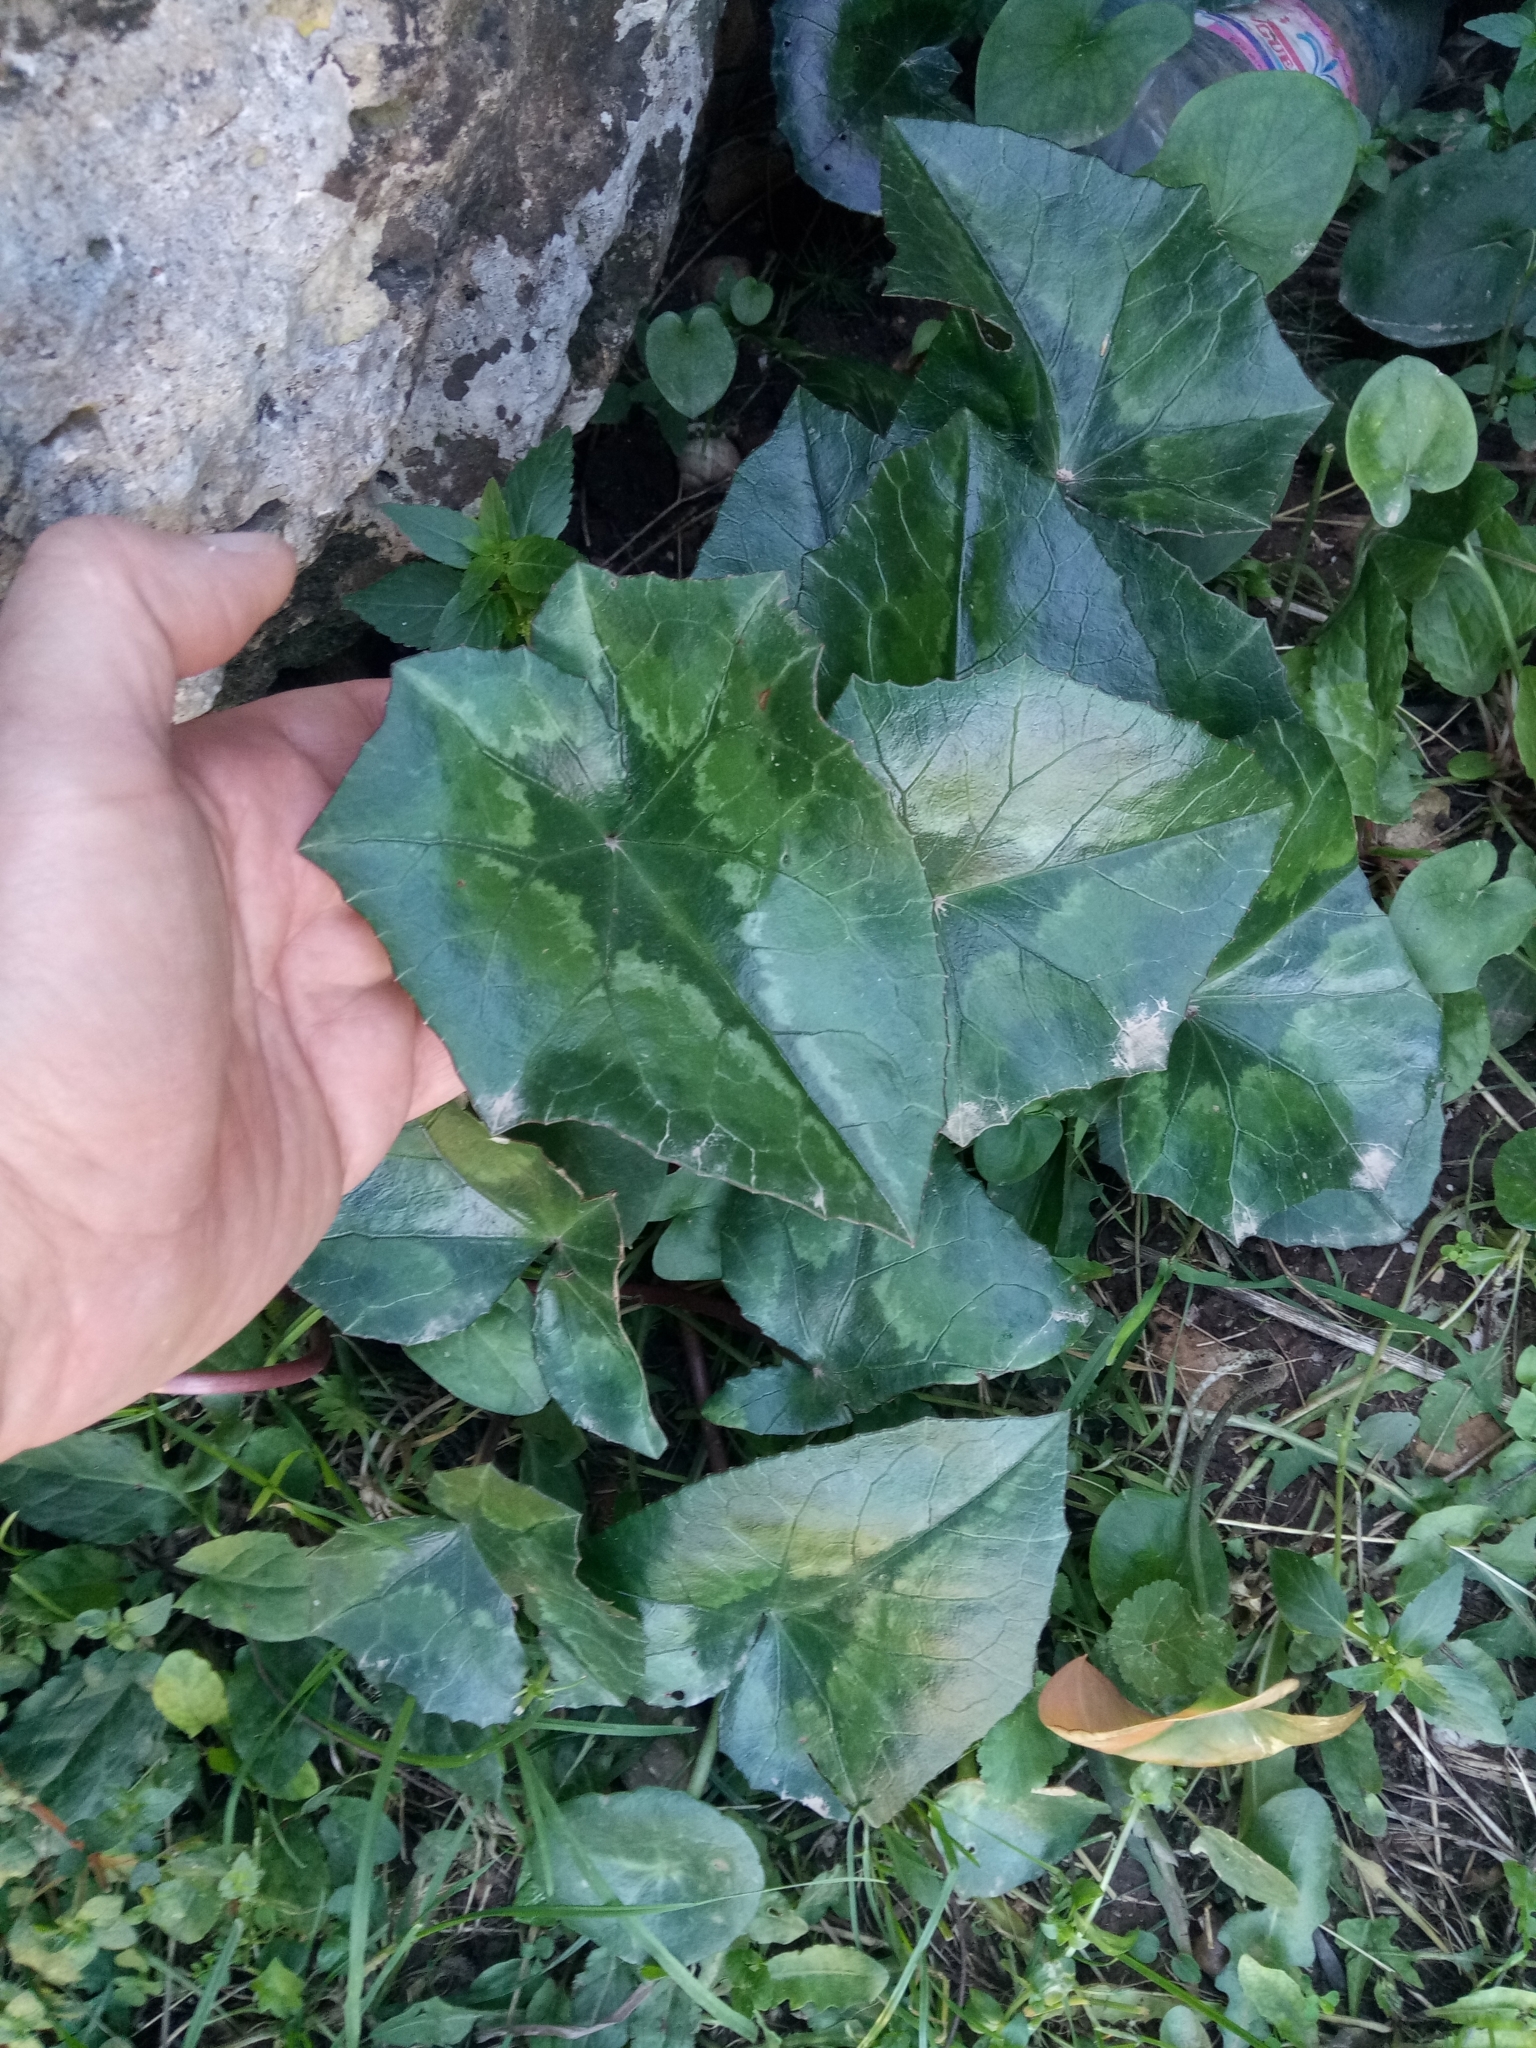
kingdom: Plantae
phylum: Tracheophyta
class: Magnoliopsida
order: Ericales
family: Primulaceae
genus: Cyclamen
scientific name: Cyclamen africanum
